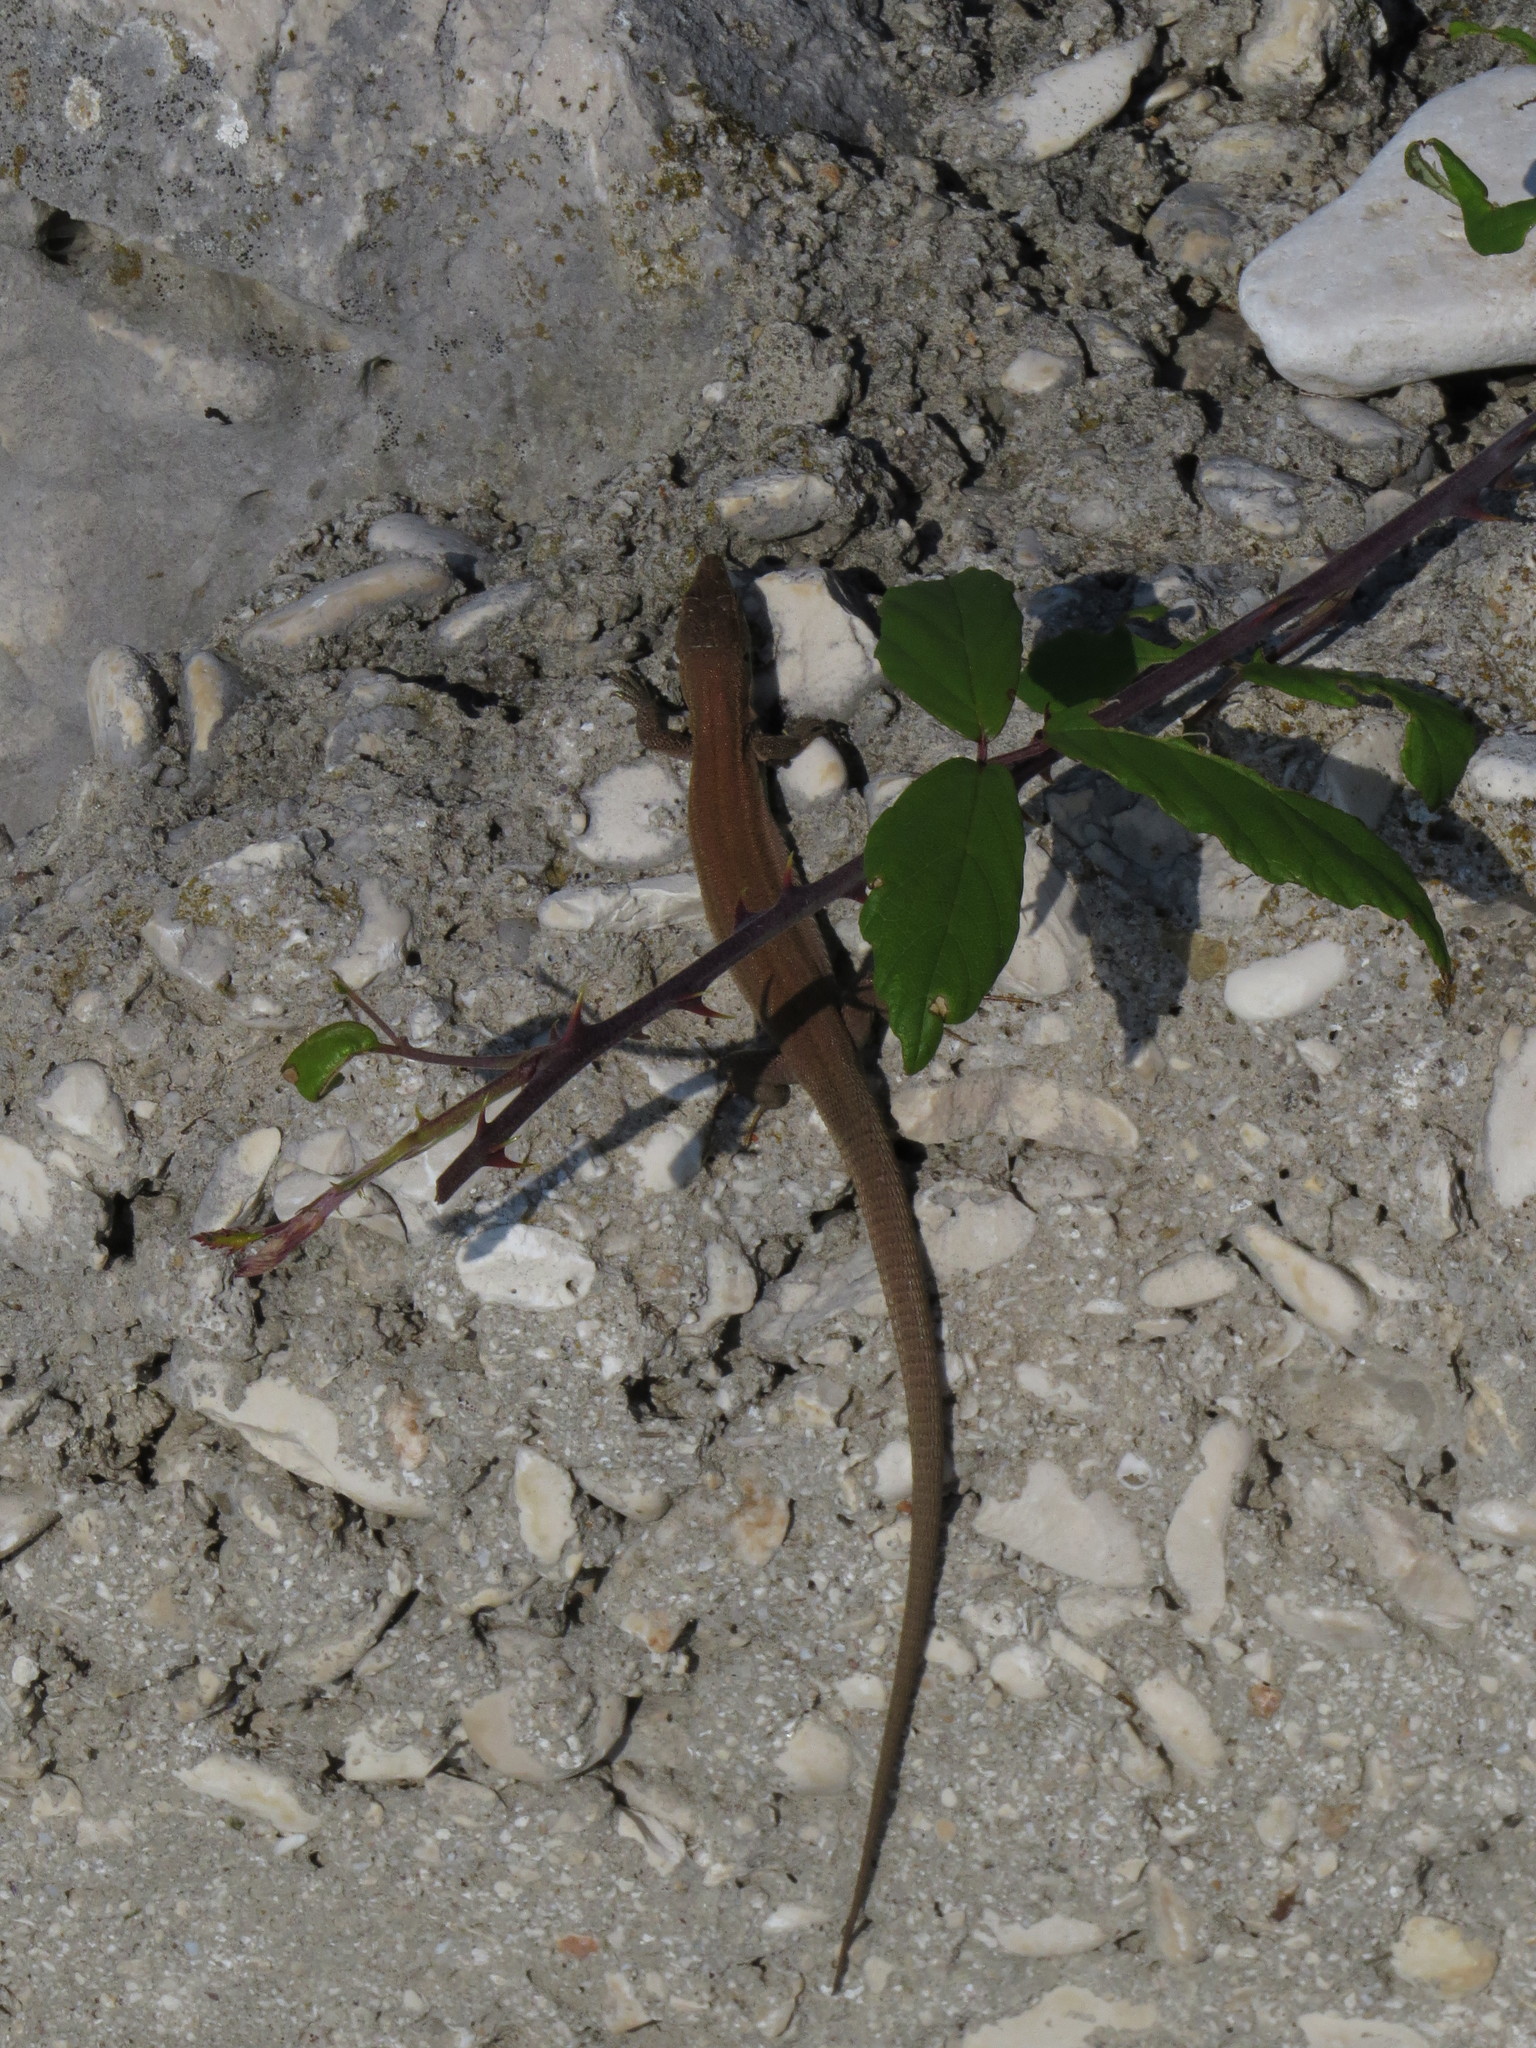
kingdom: Animalia
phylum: Chordata
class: Squamata
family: Lacertidae
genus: Podarcis
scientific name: Podarcis melisellensis
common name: Dalmatian wall lizard
